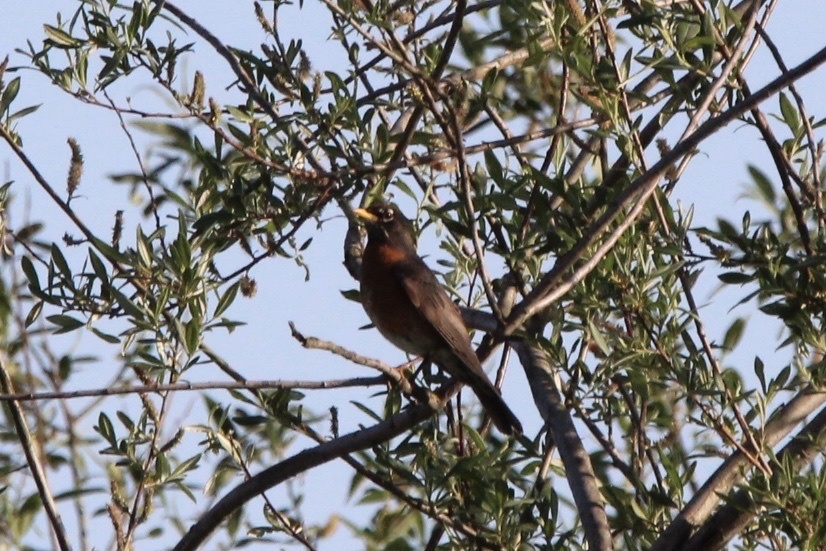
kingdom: Animalia
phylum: Chordata
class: Aves
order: Passeriformes
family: Turdidae
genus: Turdus
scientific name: Turdus migratorius
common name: American robin
